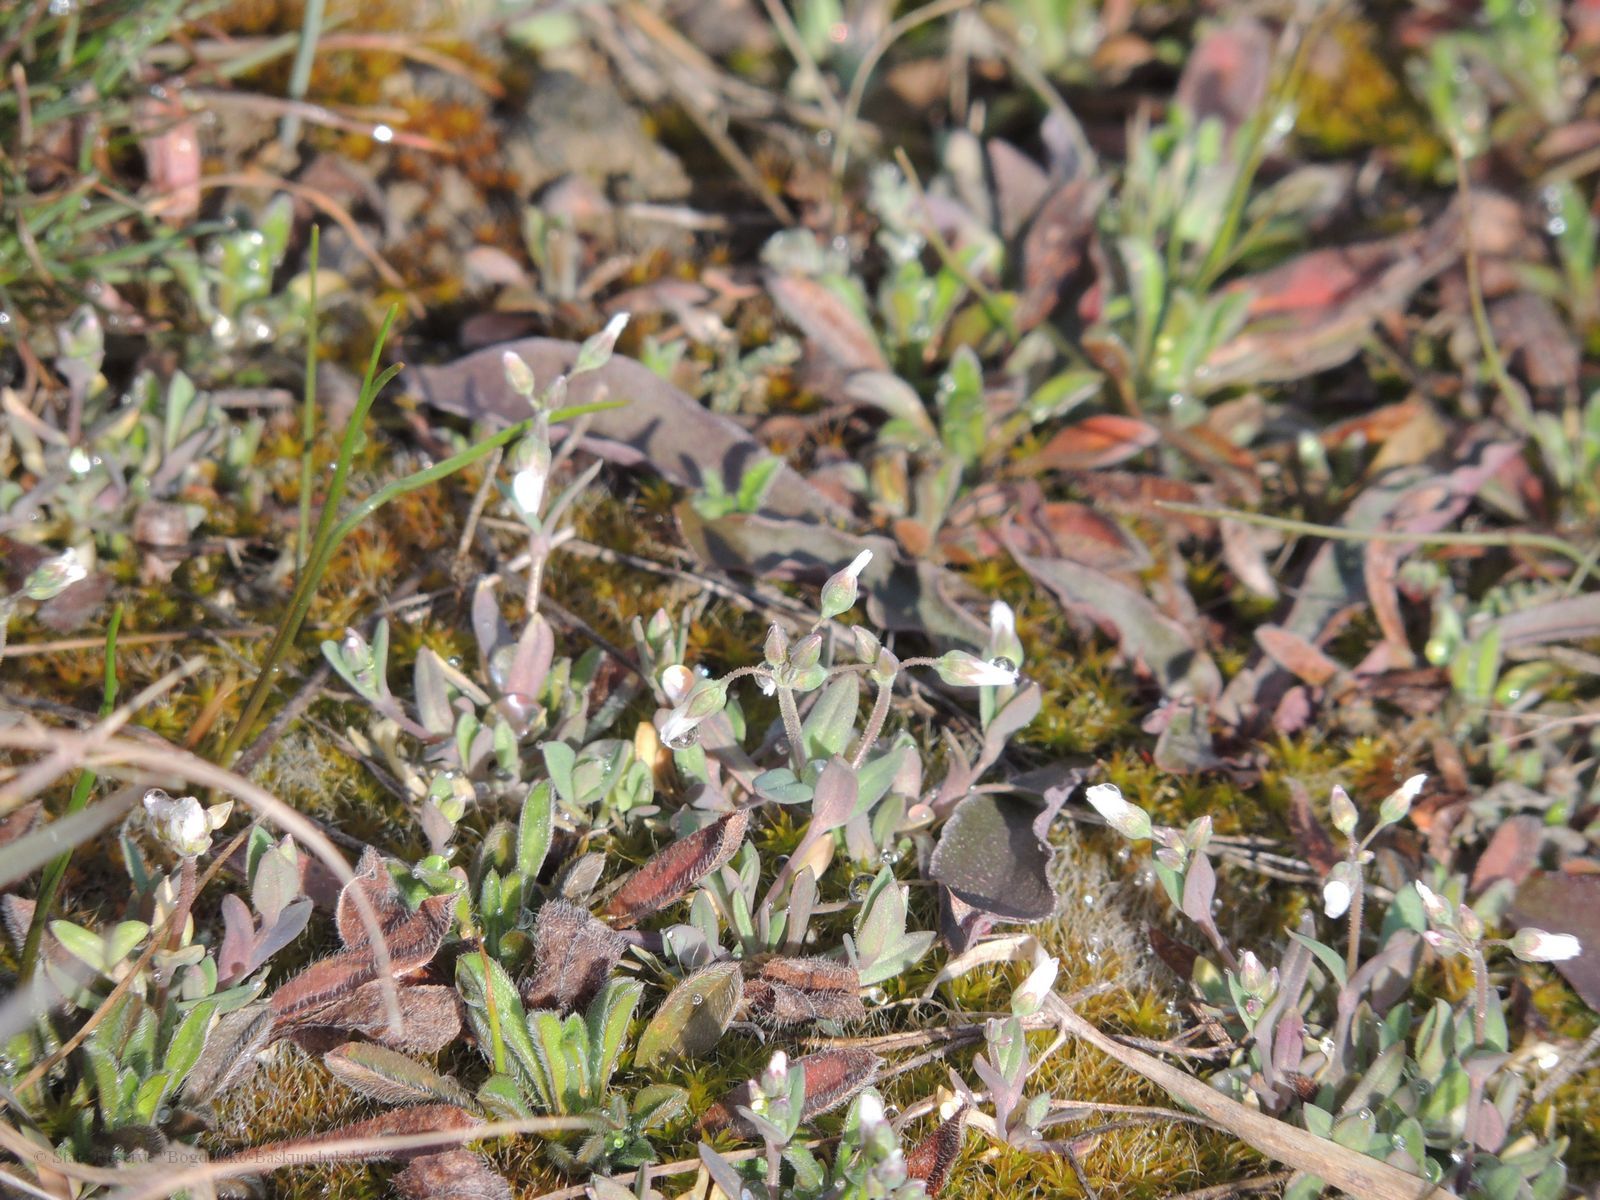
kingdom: Plantae
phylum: Tracheophyta
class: Magnoliopsida
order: Caryophyllales
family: Caryophyllaceae
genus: Holosteum
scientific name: Holosteum umbellatum
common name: Jagged chickweed
